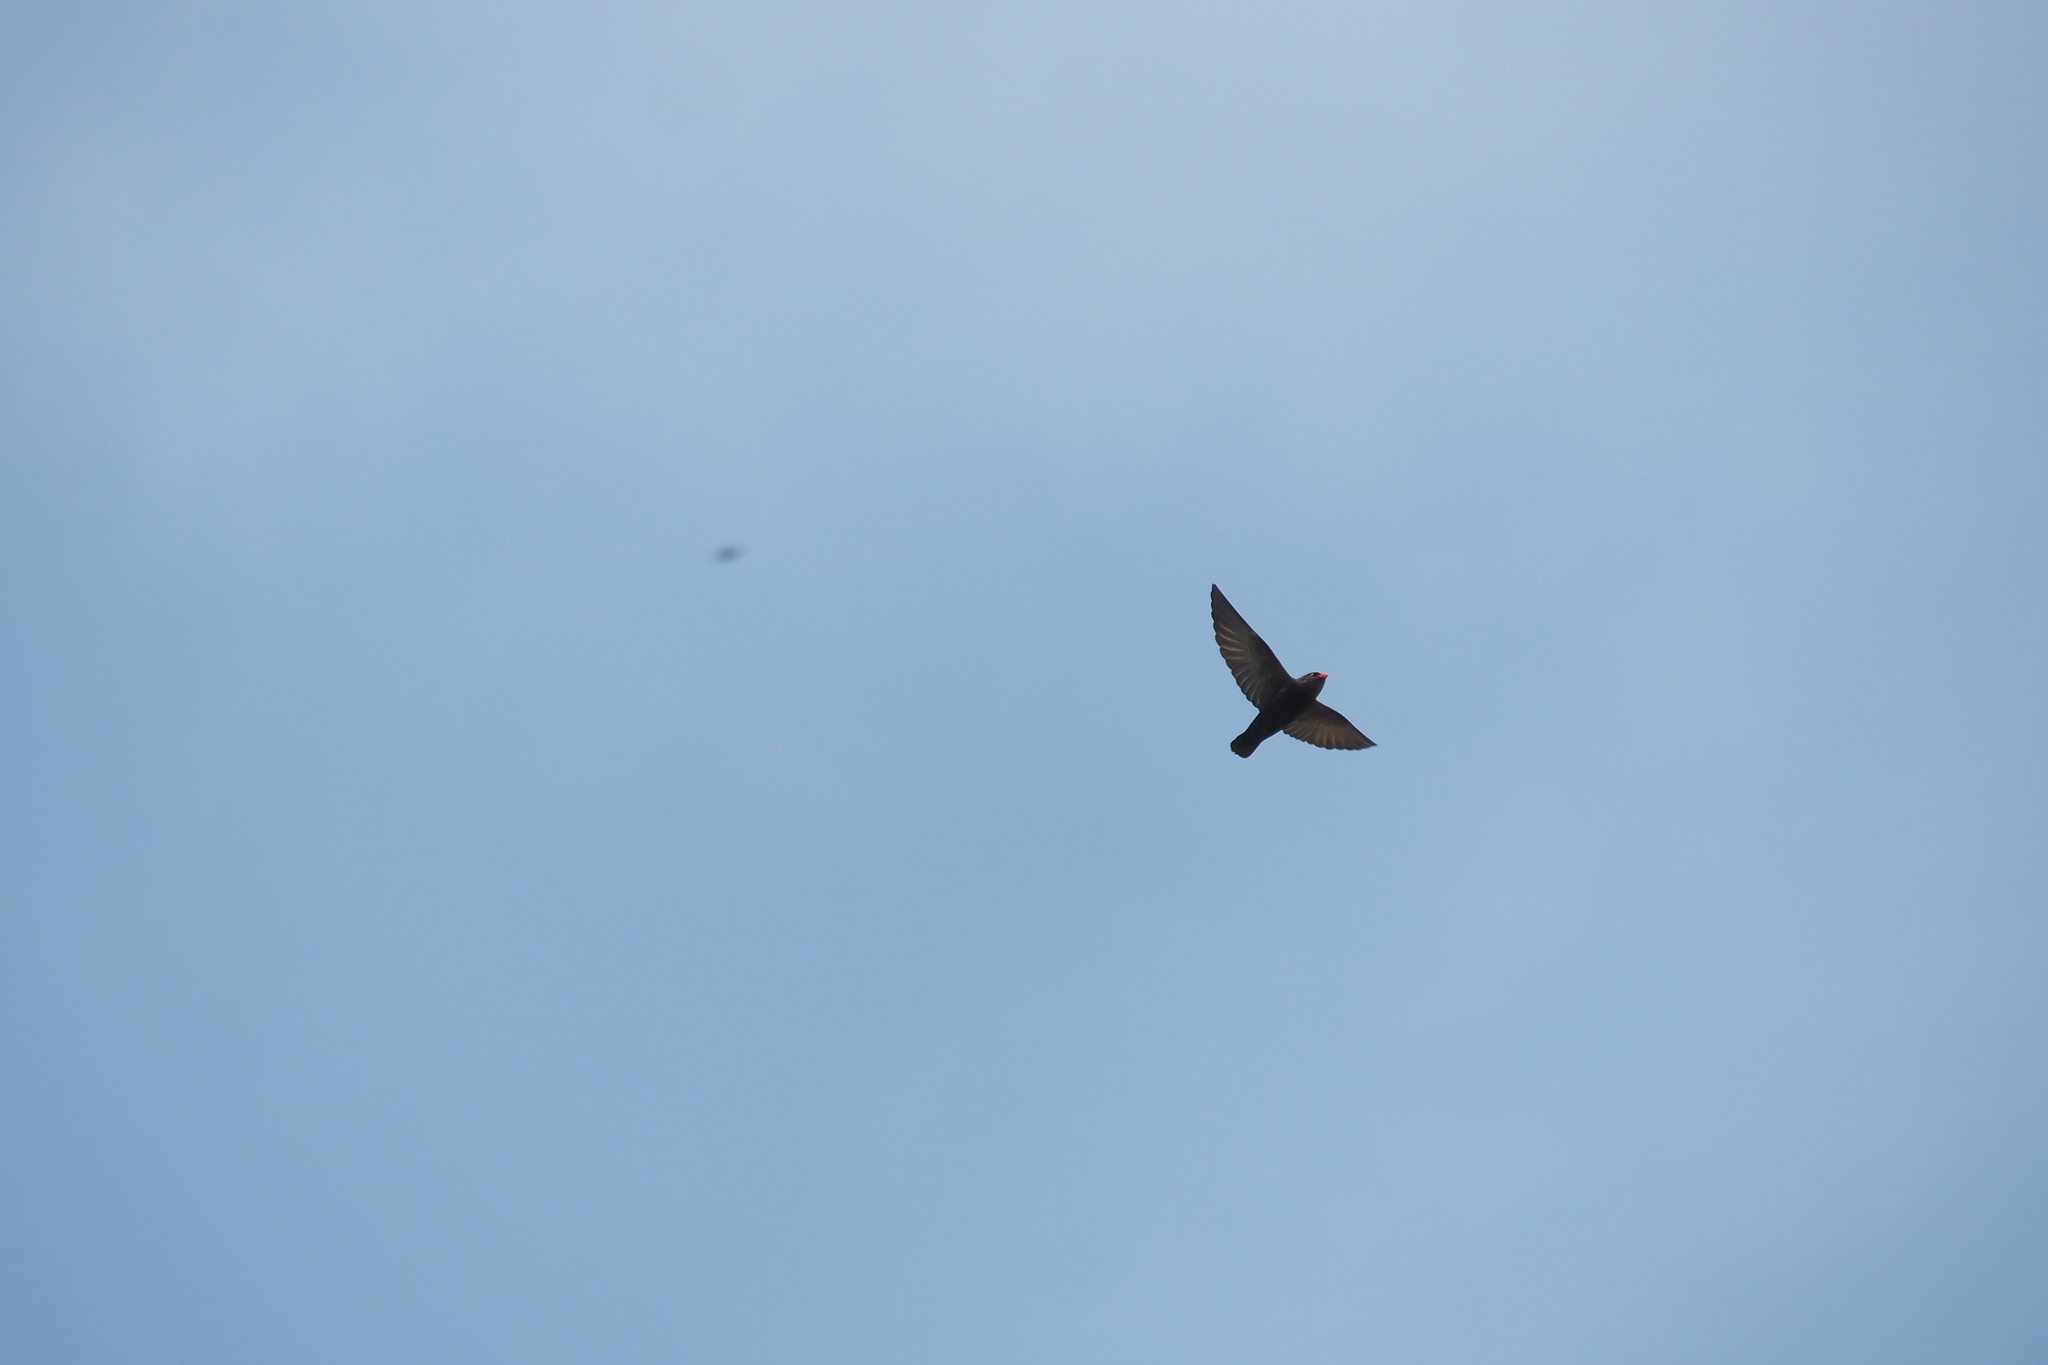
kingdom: Animalia
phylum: Chordata
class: Aves
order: Passeriformes
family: Hirundinidae
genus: Pseudochelidon
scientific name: Pseudochelidon eurystomina
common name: African river martin
